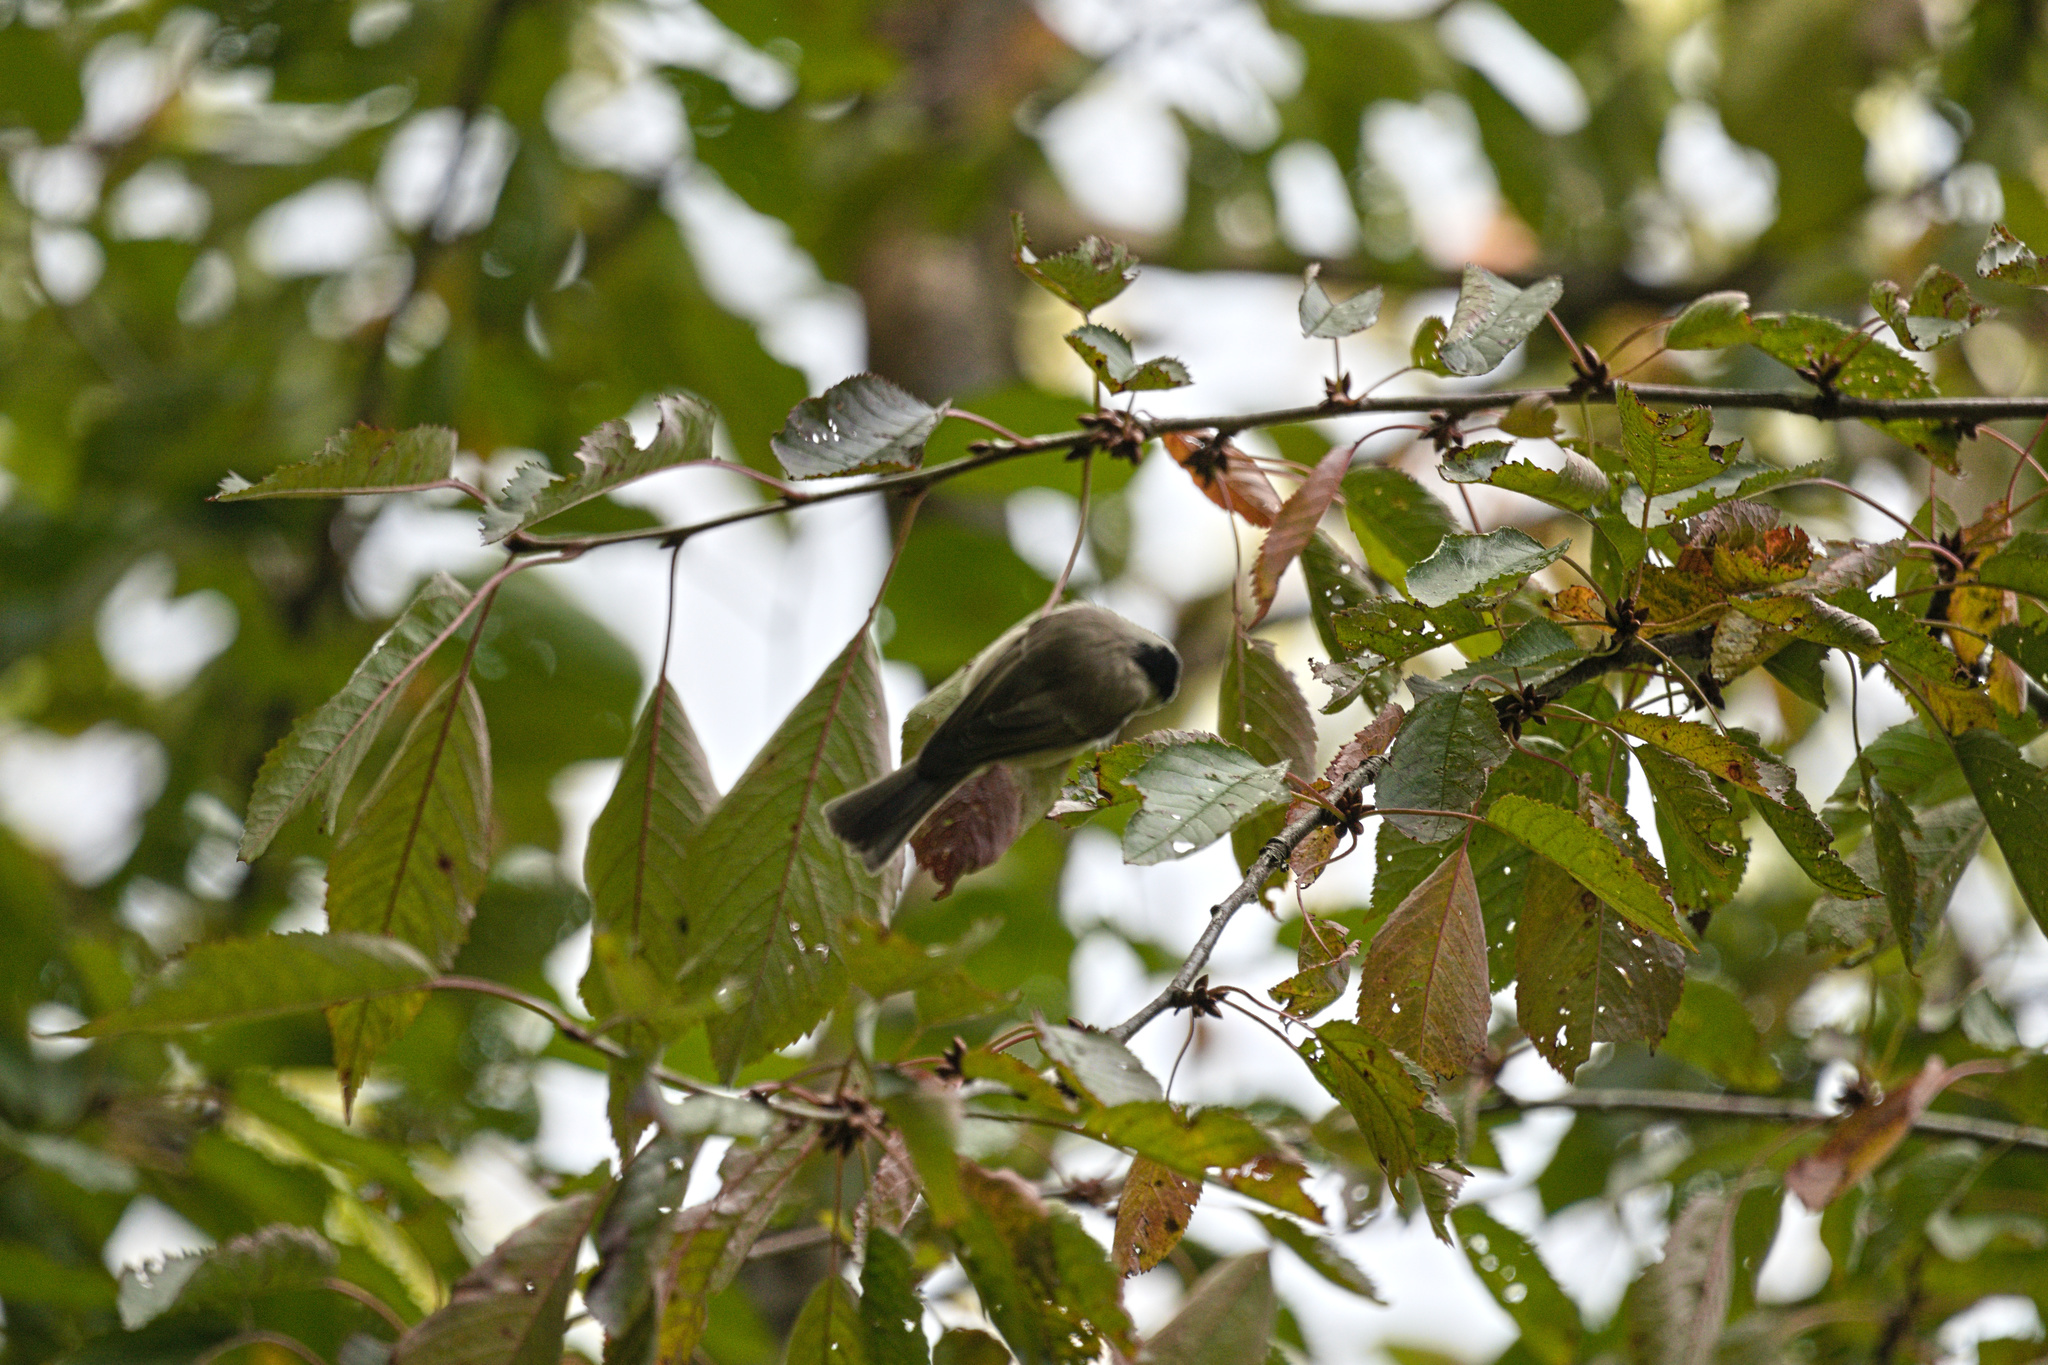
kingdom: Animalia
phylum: Chordata
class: Aves
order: Passeriformes
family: Paridae
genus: Poecile
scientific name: Poecile palustris
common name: Marsh tit
